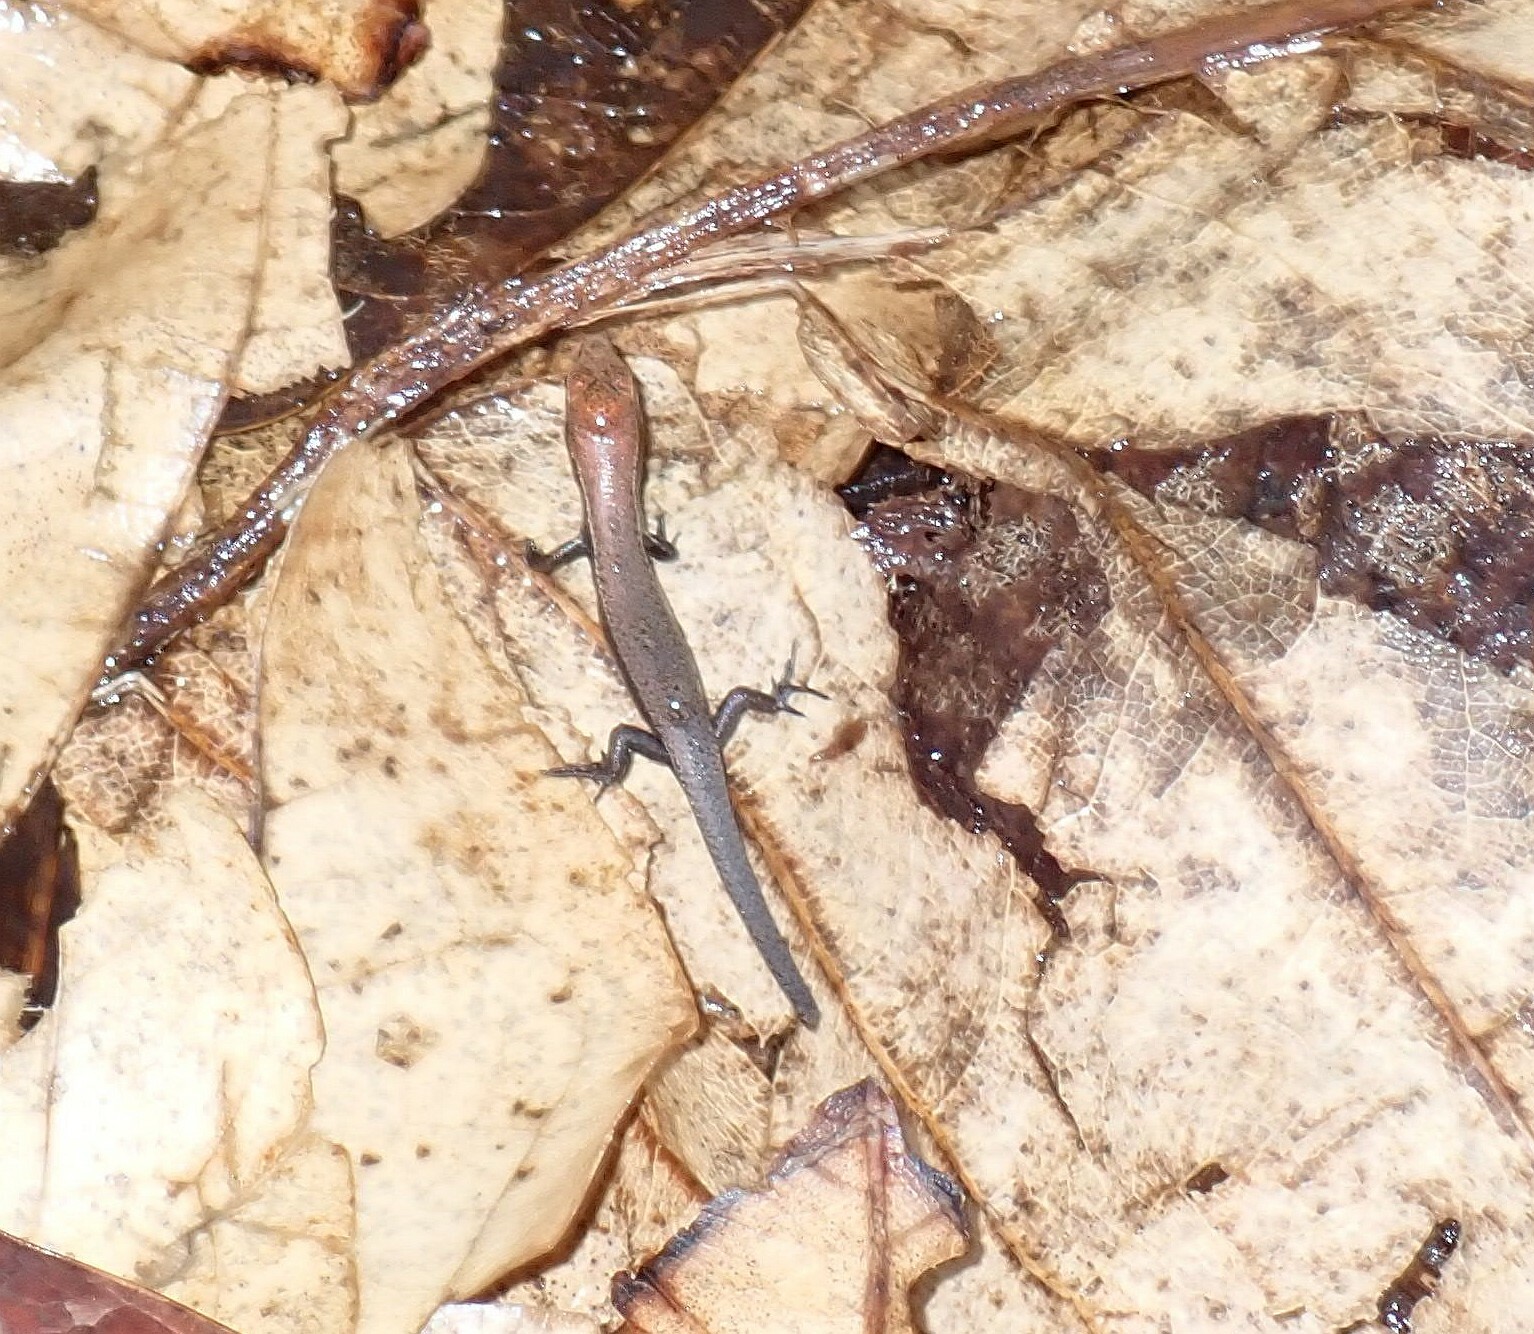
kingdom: Animalia
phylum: Chordata
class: Squamata
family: Scincidae
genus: Caledoniscincus
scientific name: Caledoniscincus atropunctatus
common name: Speckled litter skink
